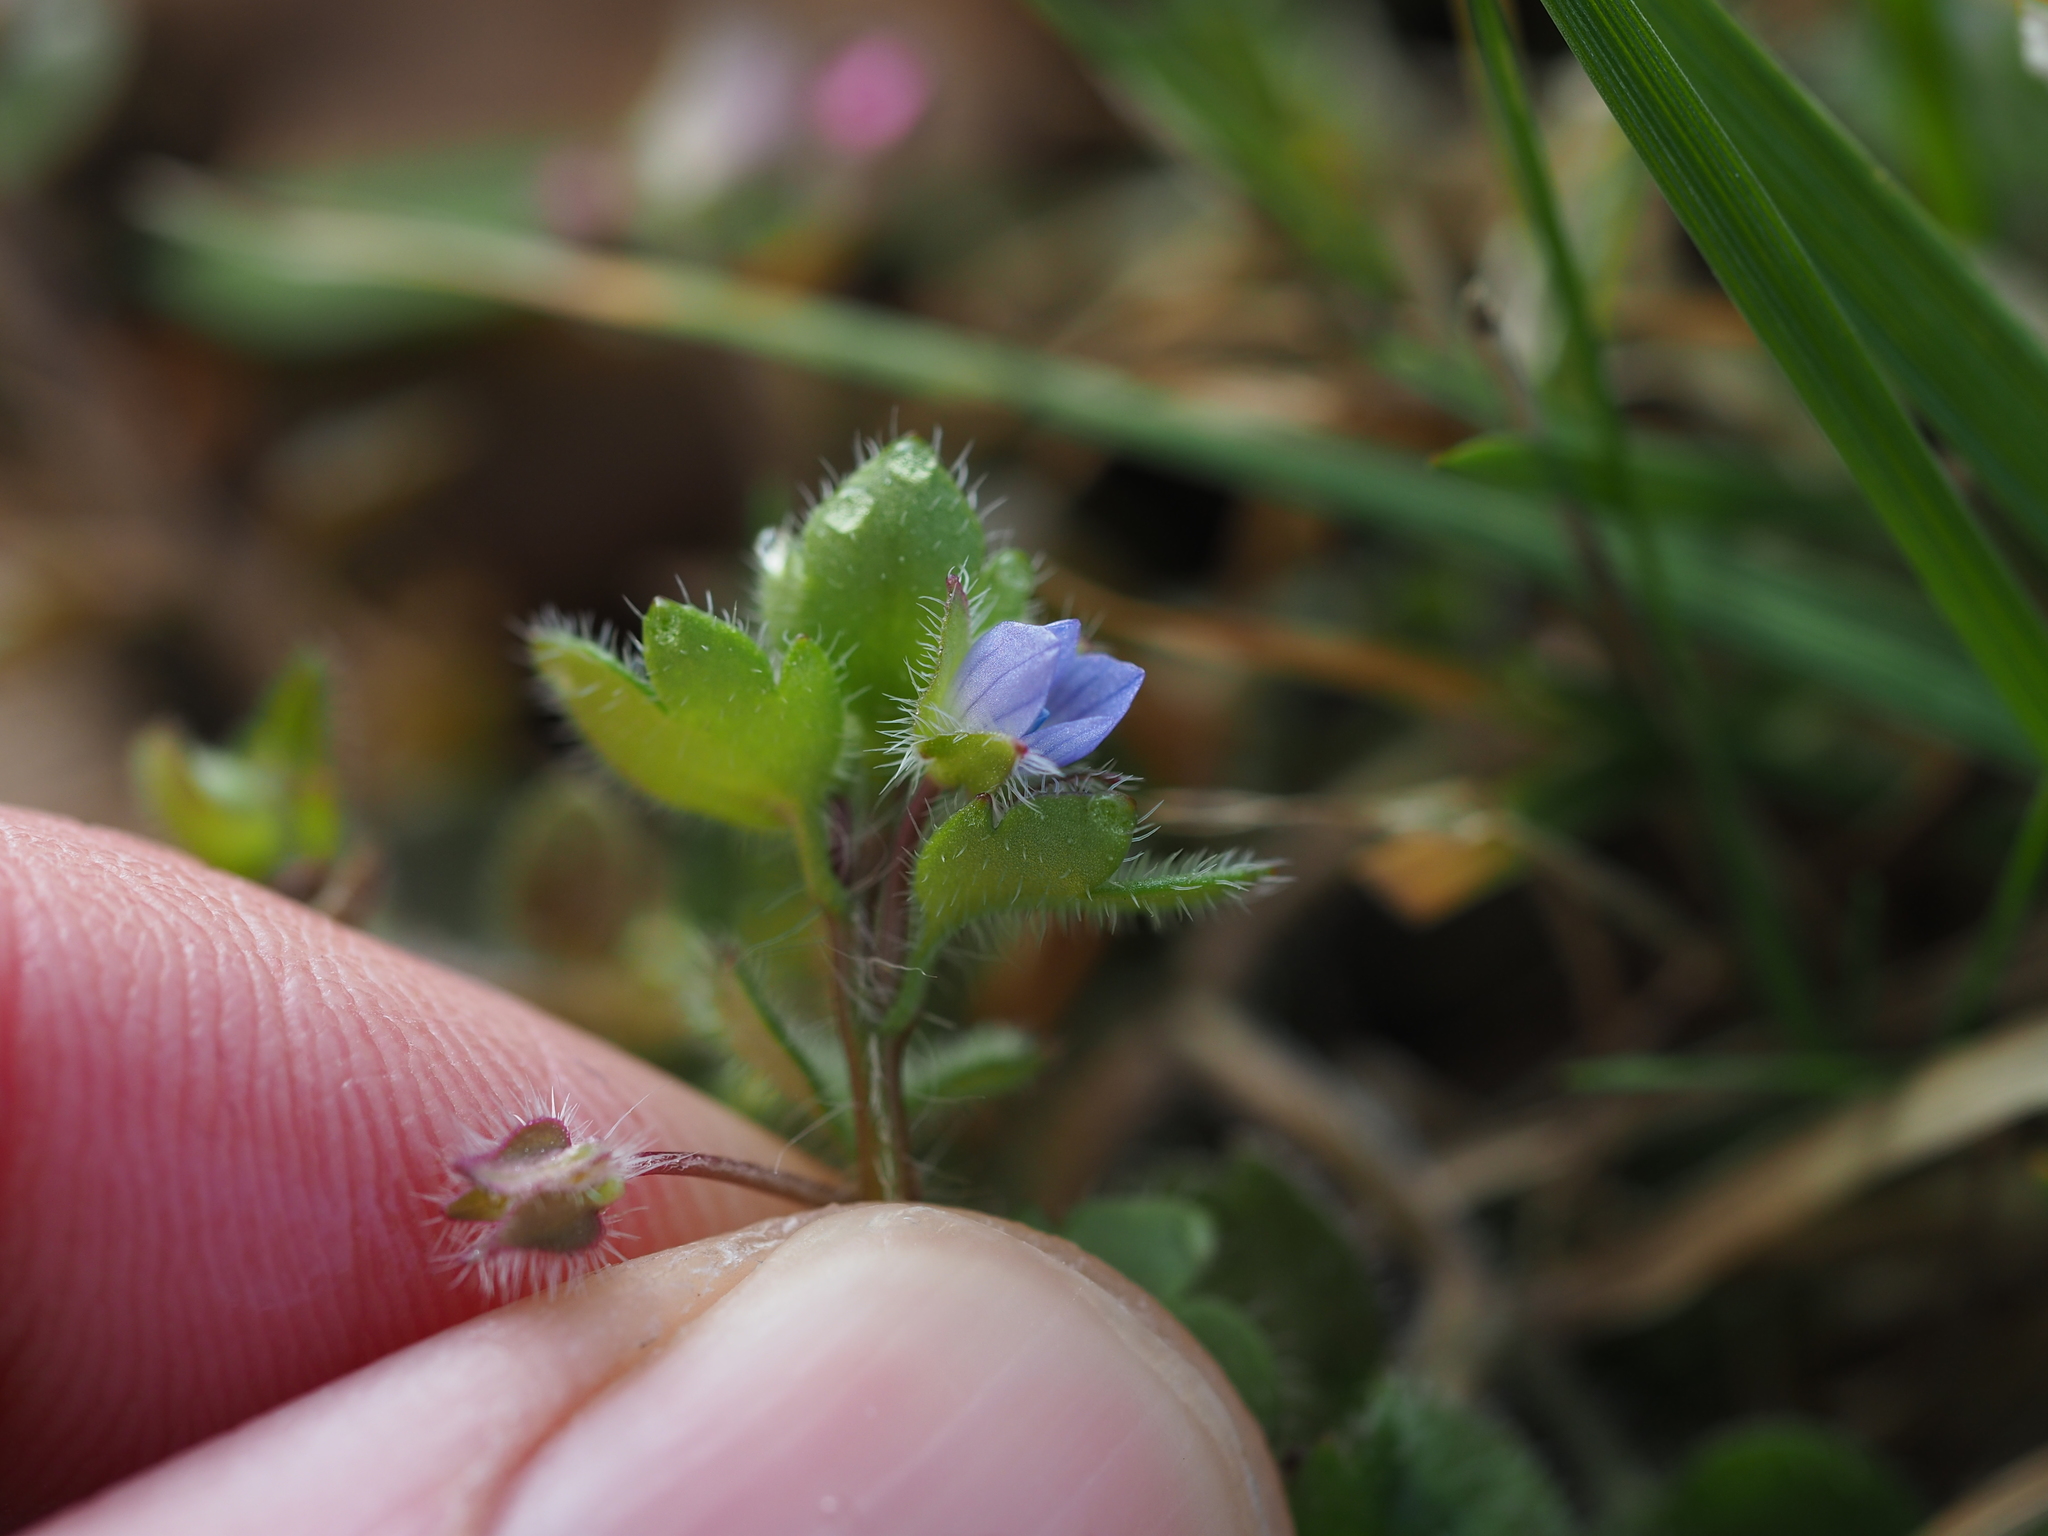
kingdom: Plantae
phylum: Tracheophyta
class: Magnoliopsida
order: Lamiales
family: Plantaginaceae
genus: Veronica
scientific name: Veronica hederifolia
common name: Ivy-leaved speedwell
